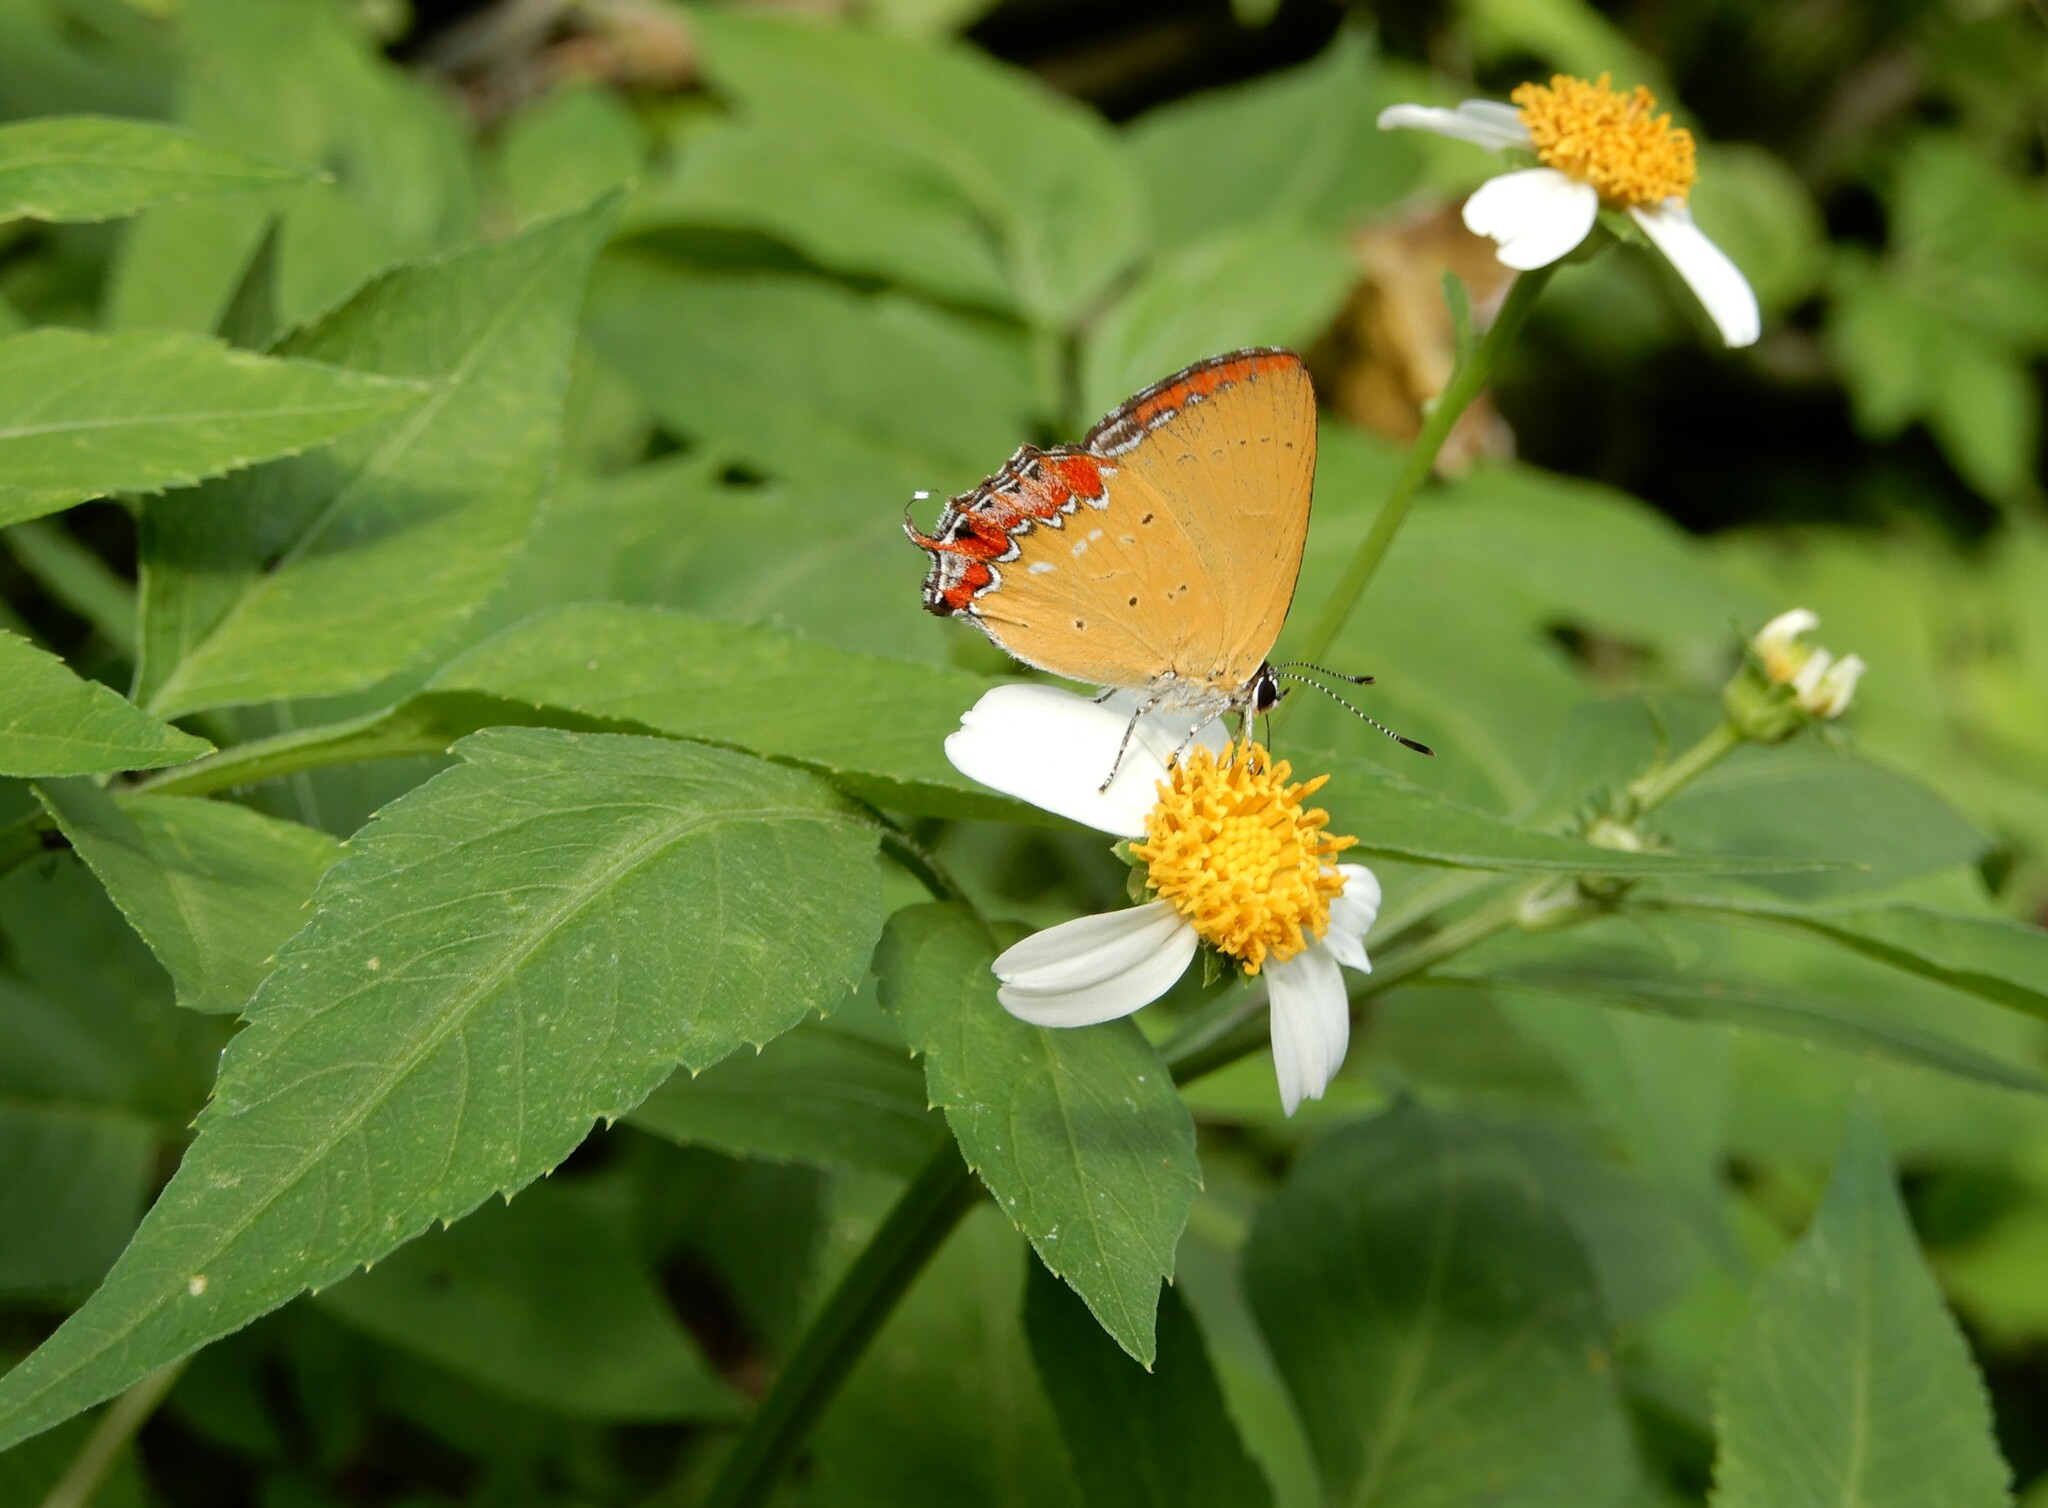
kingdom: Animalia
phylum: Arthropoda
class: Insecta
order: Lepidoptera
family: Lycaenidae
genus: Heliophorus
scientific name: Heliophorus ila
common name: Restricted purple sapphire
